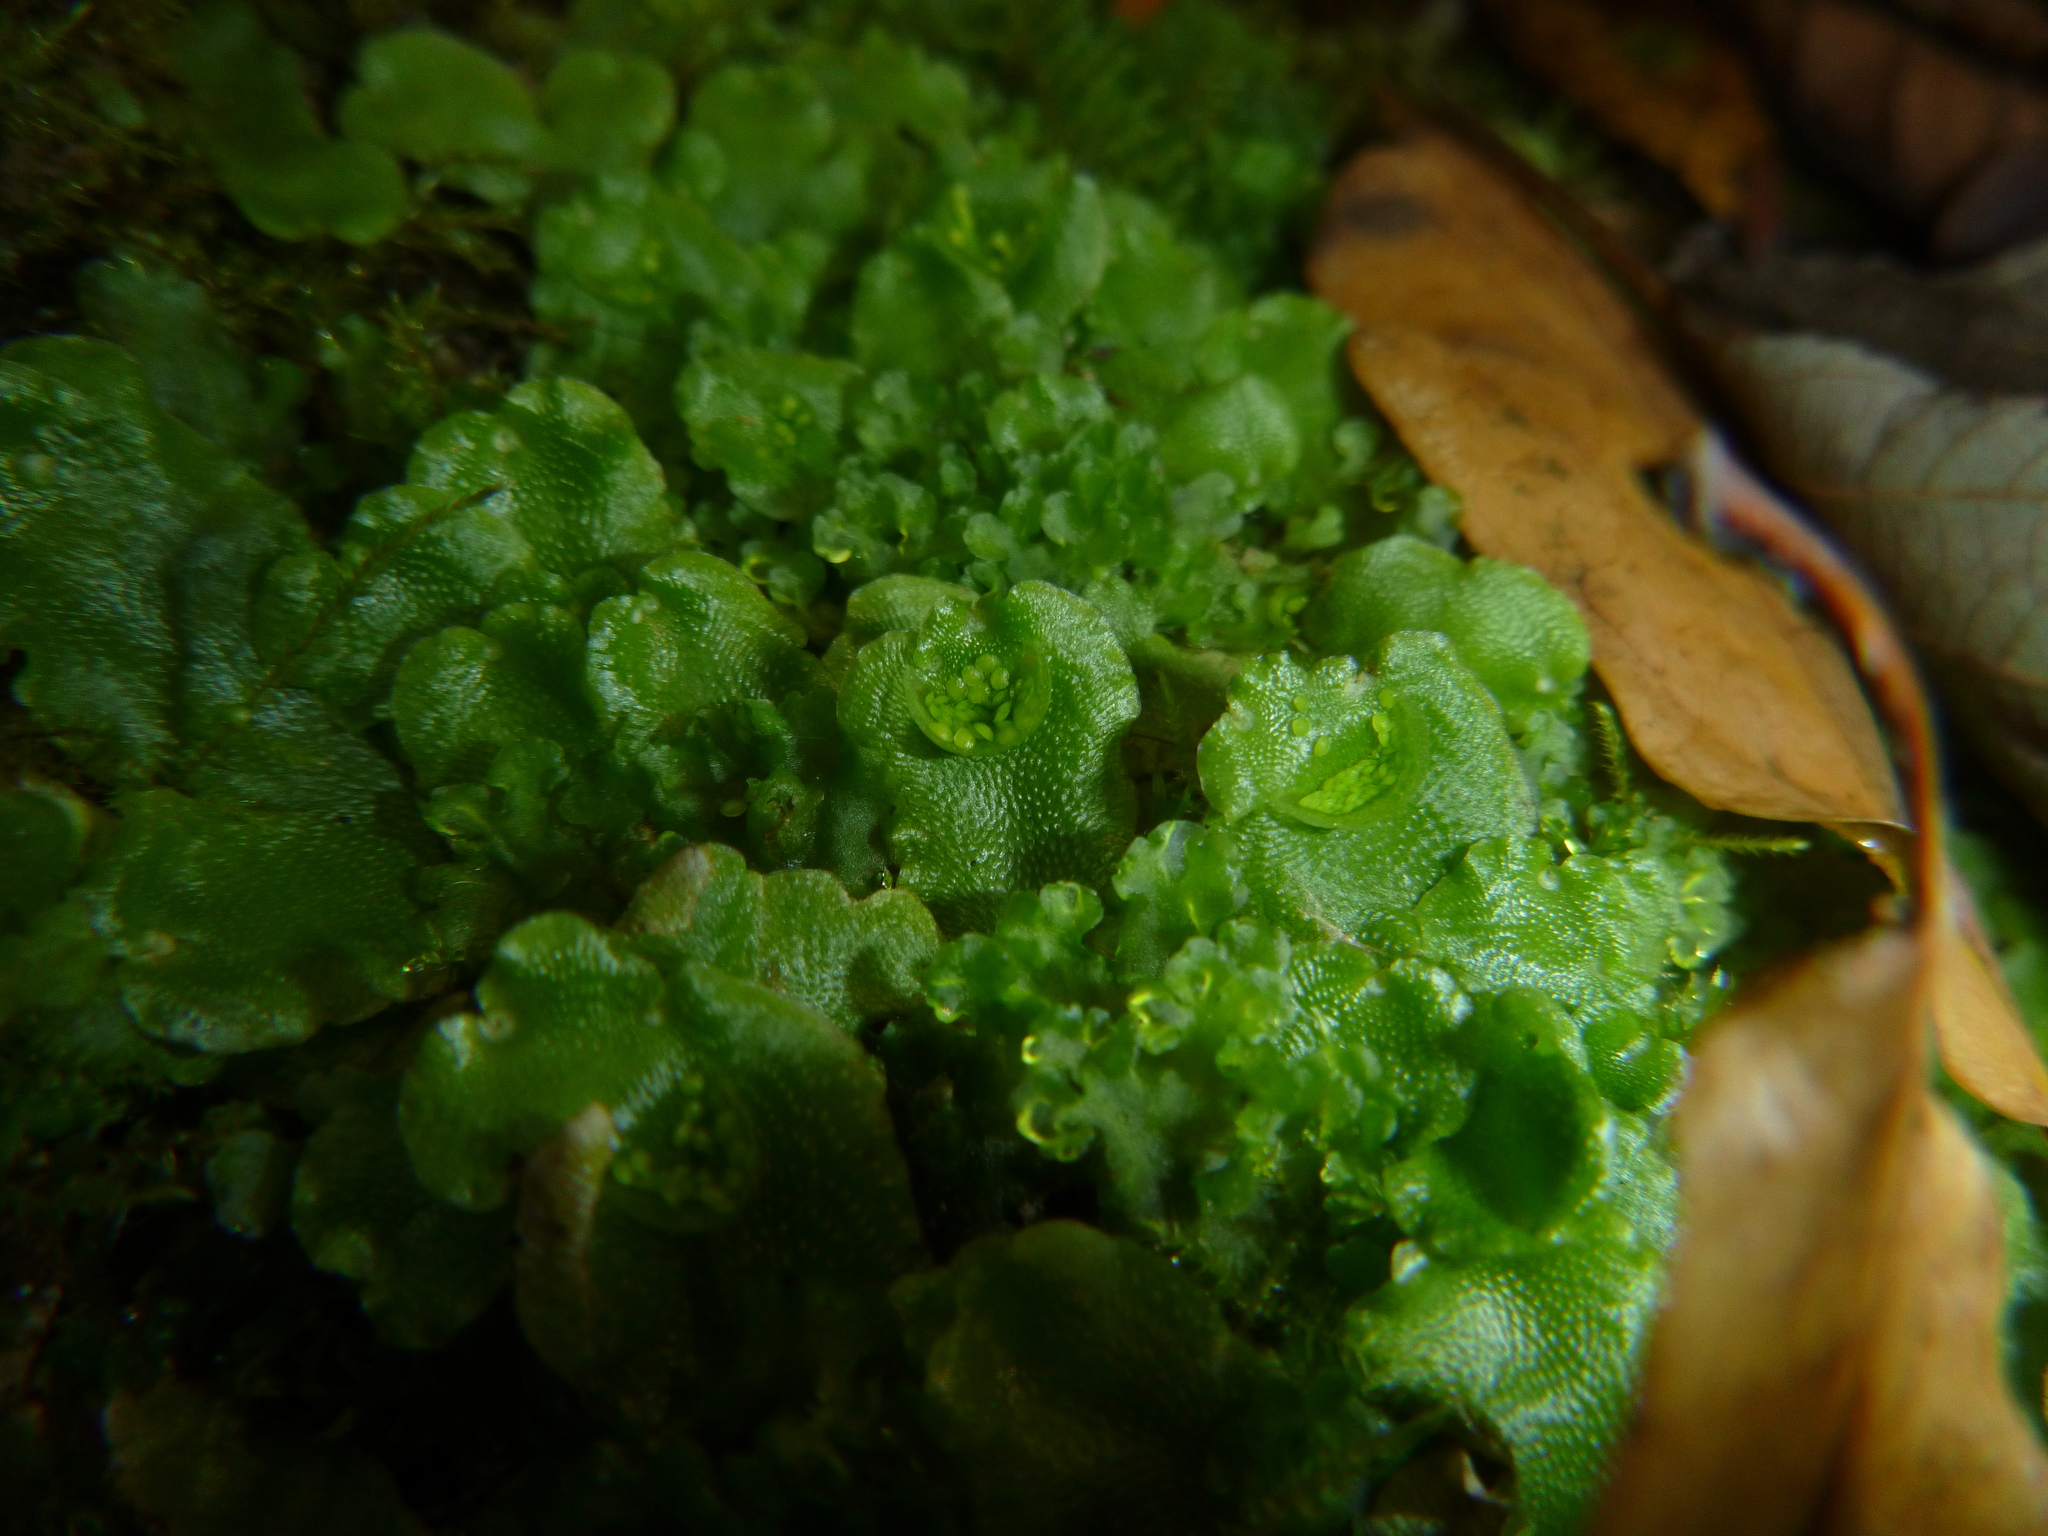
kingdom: Plantae
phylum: Marchantiophyta
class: Marchantiopsida
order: Lunulariales
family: Lunulariaceae
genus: Lunularia
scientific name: Lunularia cruciata
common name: Crescent-cup liverwort
